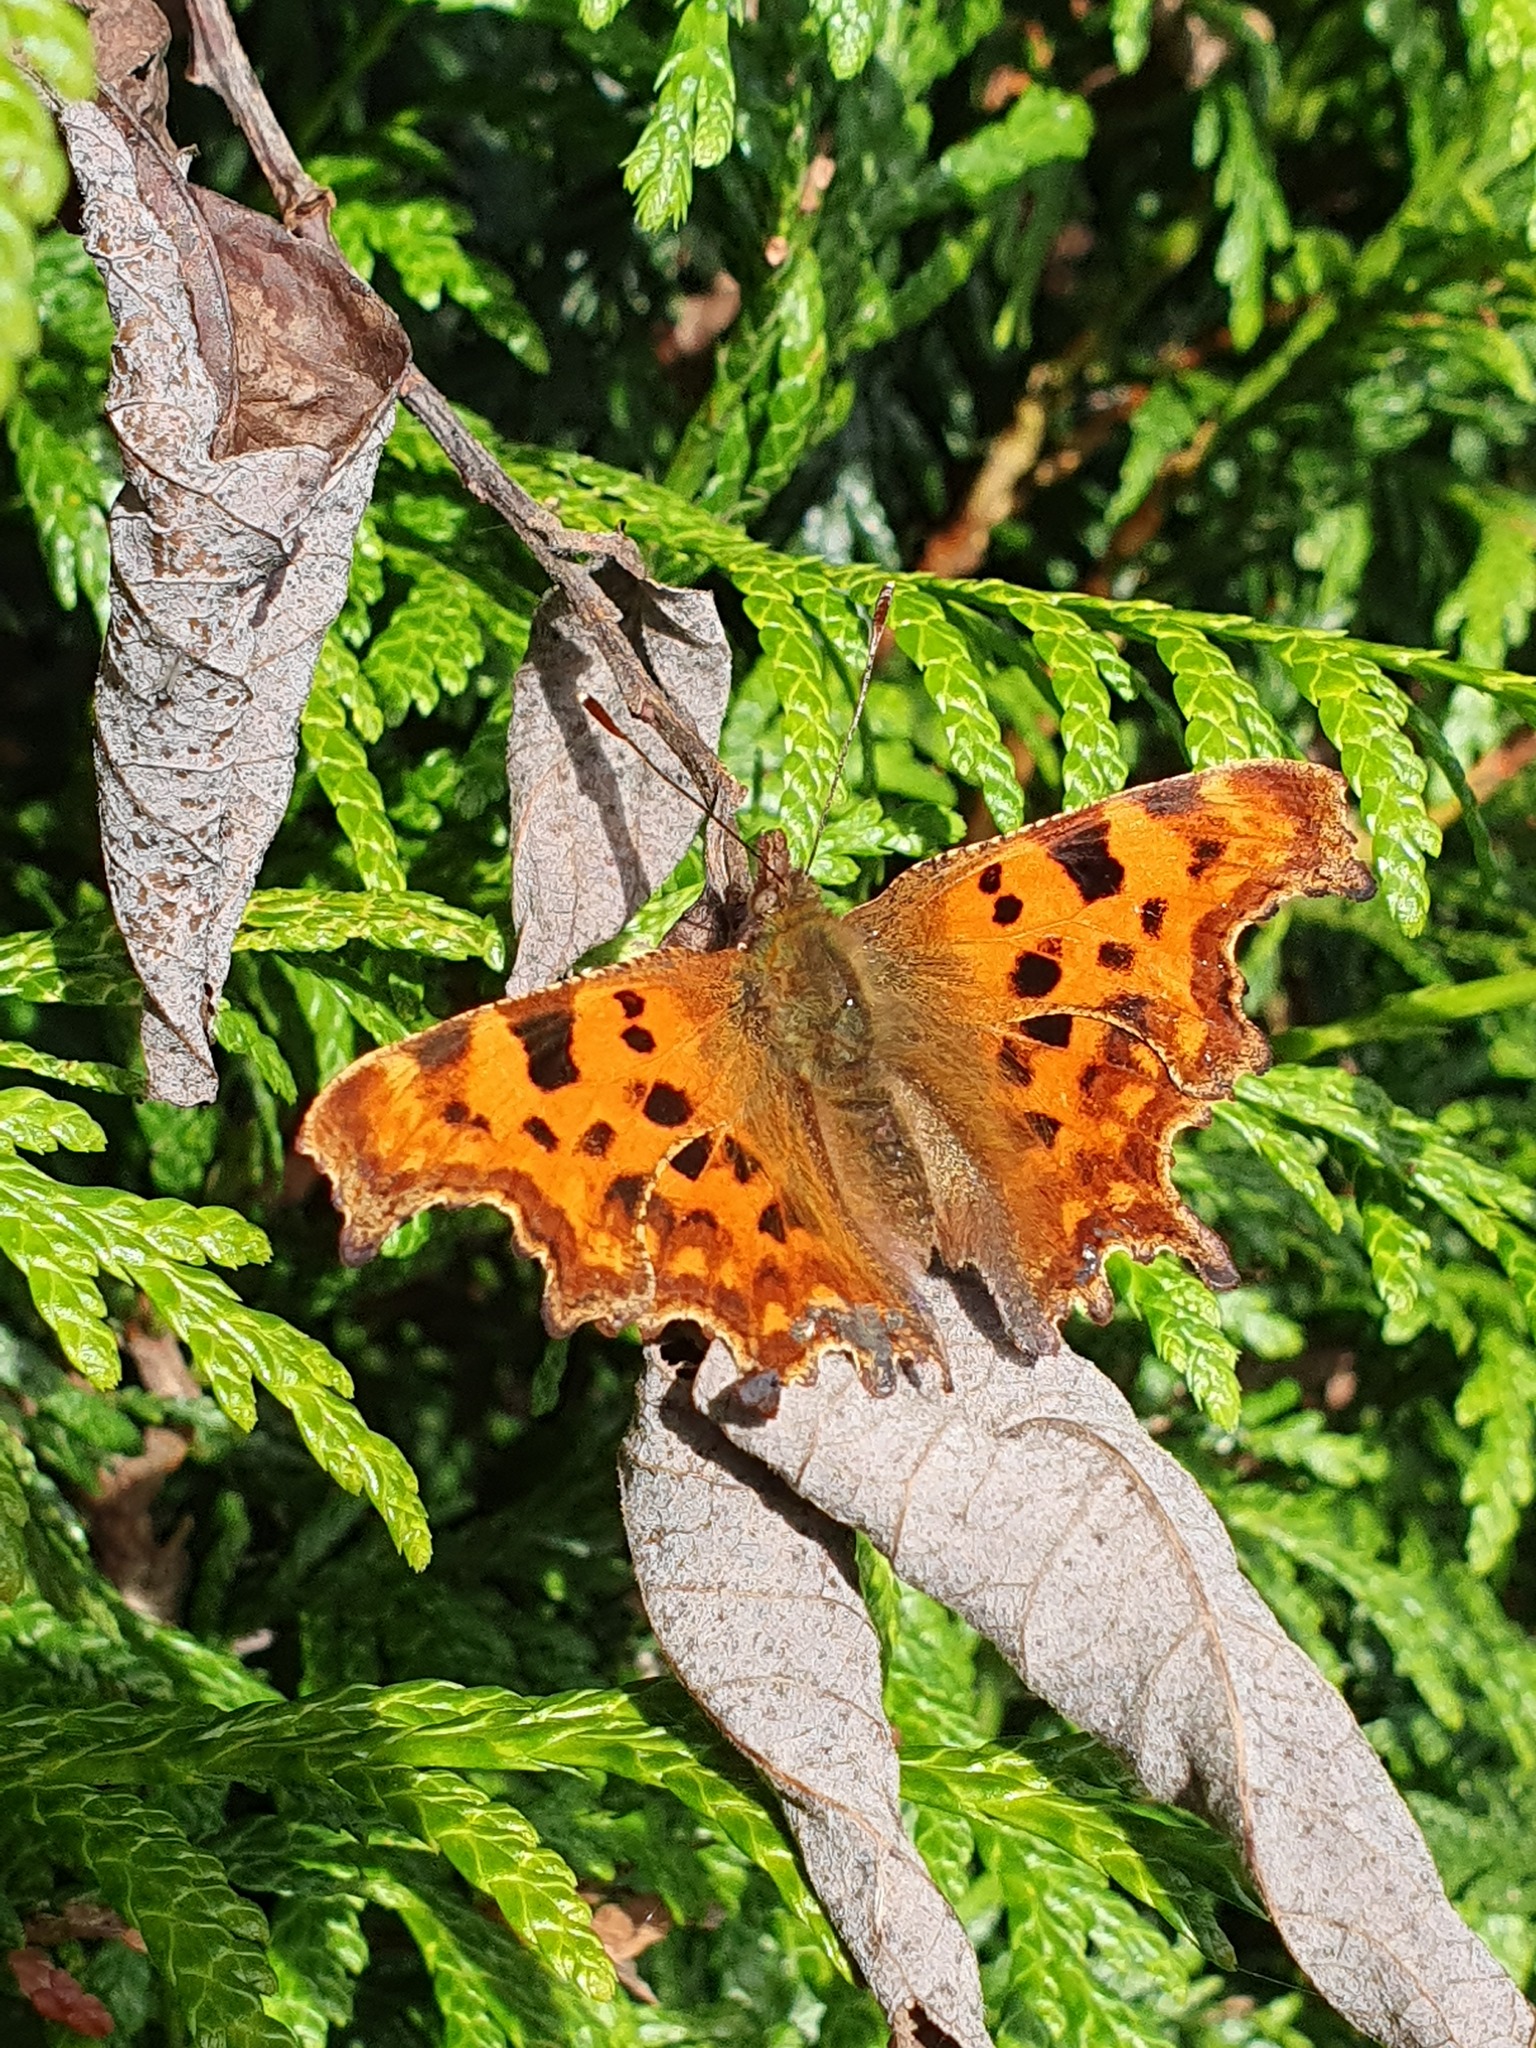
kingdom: Animalia
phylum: Arthropoda
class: Insecta
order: Lepidoptera
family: Nymphalidae
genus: Polygonia
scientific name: Polygonia c-album
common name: Comma
